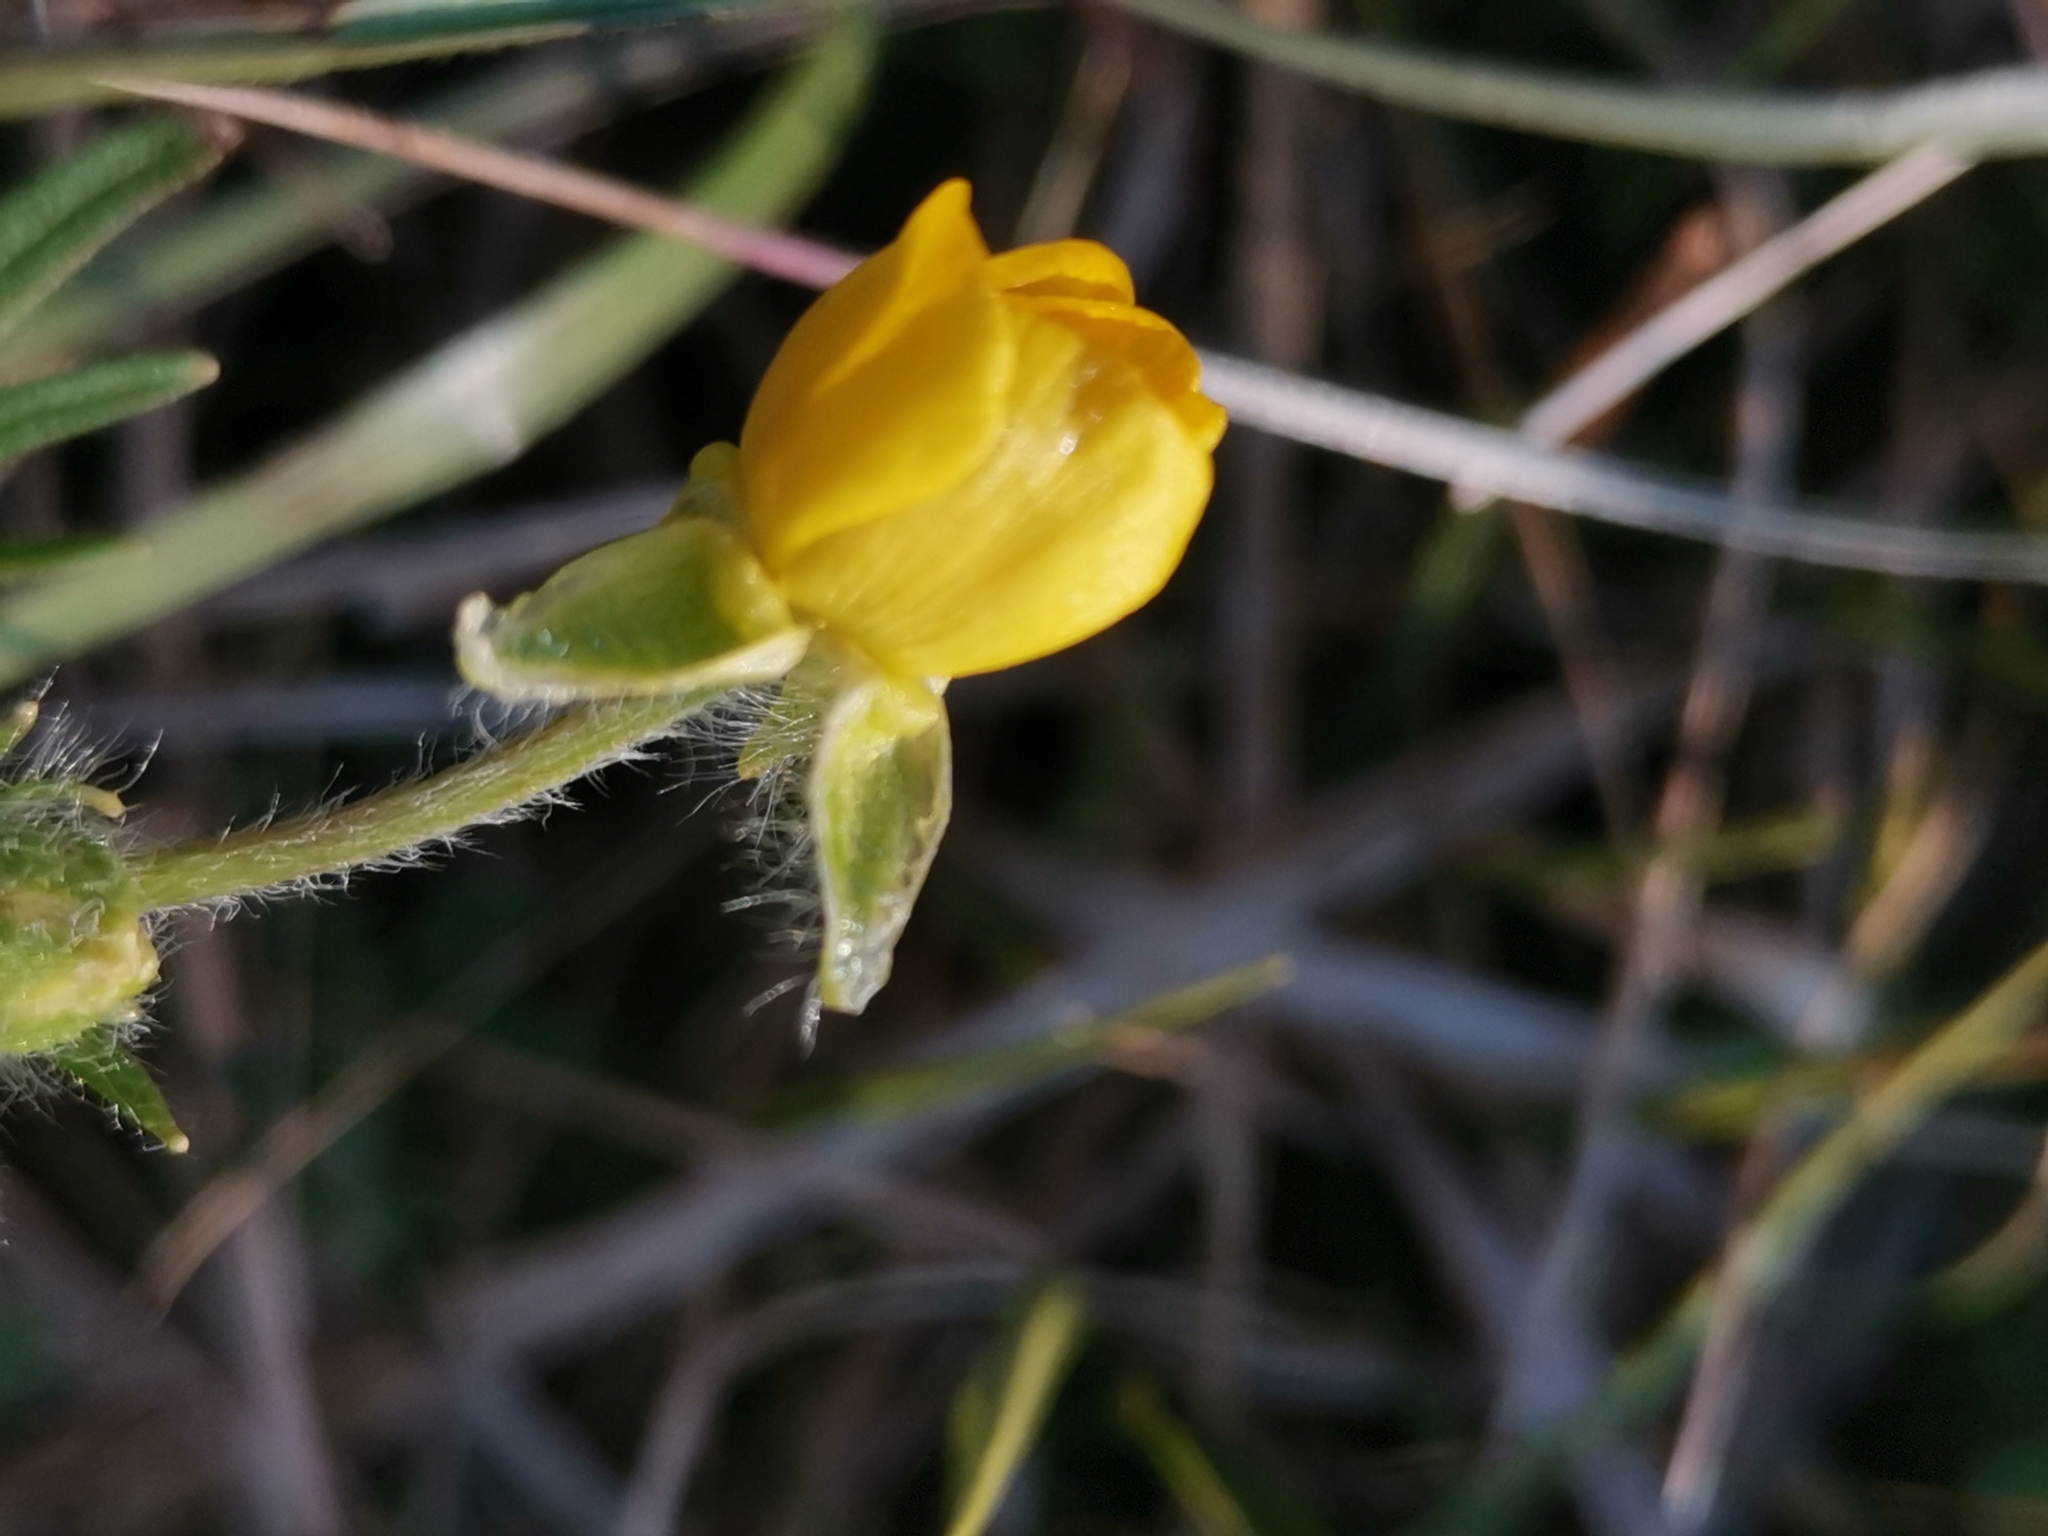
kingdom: Plantae
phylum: Tracheophyta
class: Magnoliopsida
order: Ranunculales
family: Ranunculaceae
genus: Ranunculus
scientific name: Ranunculus bulbosus
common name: Bulbous buttercup
